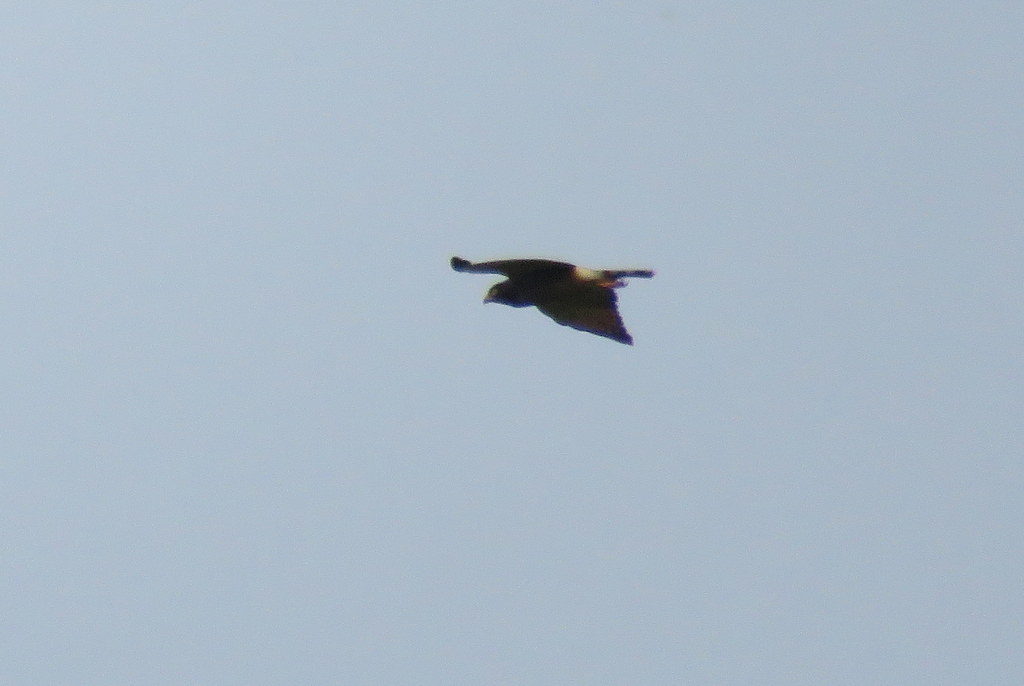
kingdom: Animalia
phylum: Chordata
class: Aves
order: Accipitriformes
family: Accipitridae
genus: Rupornis
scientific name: Rupornis magnirostris
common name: Roadside hawk
